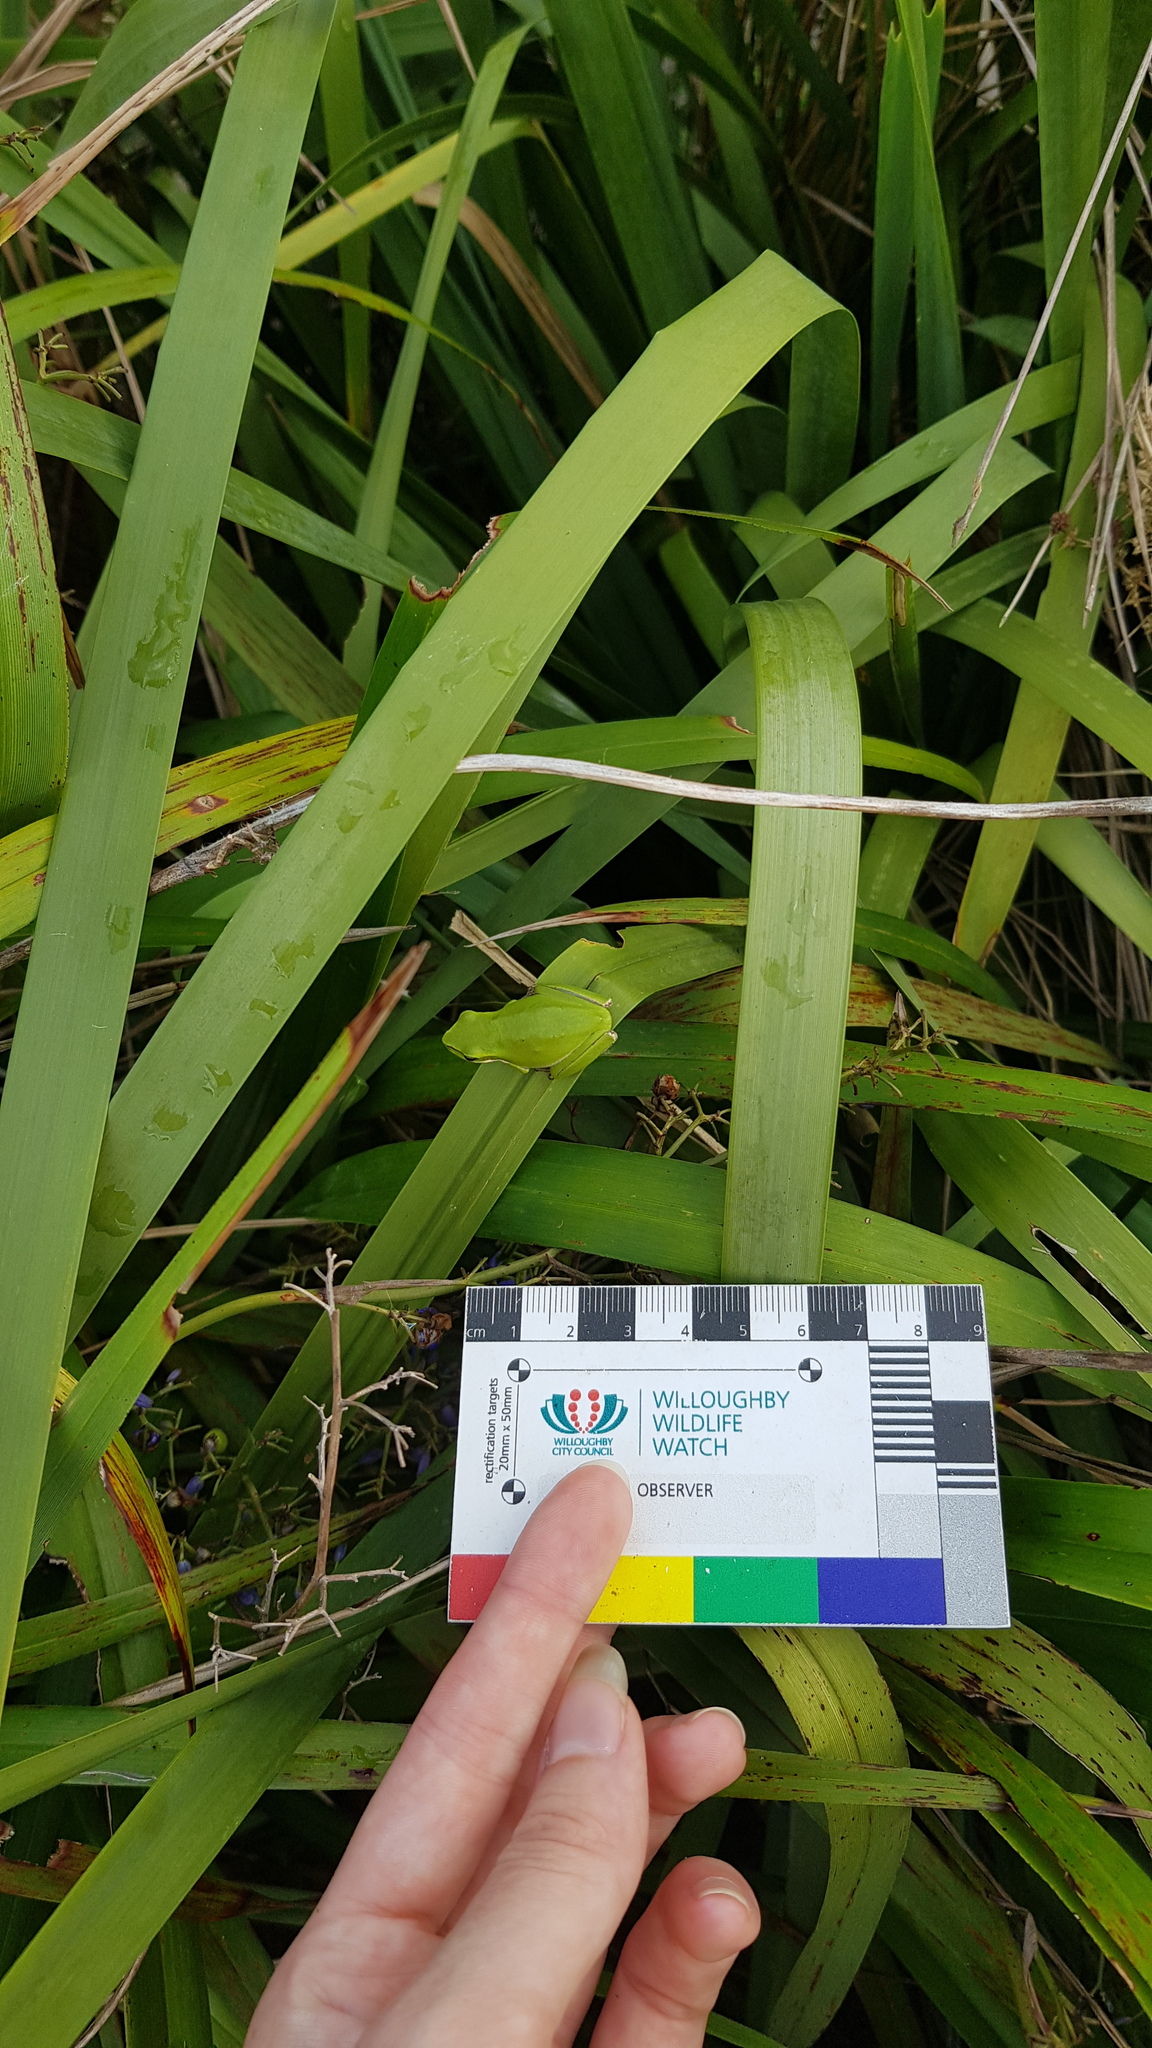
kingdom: Animalia
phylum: Chordata
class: Amphibia
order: Anura
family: Pelodryadidae
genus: Litoria
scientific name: Litoria fallax
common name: Eastern dwarf treefrog
